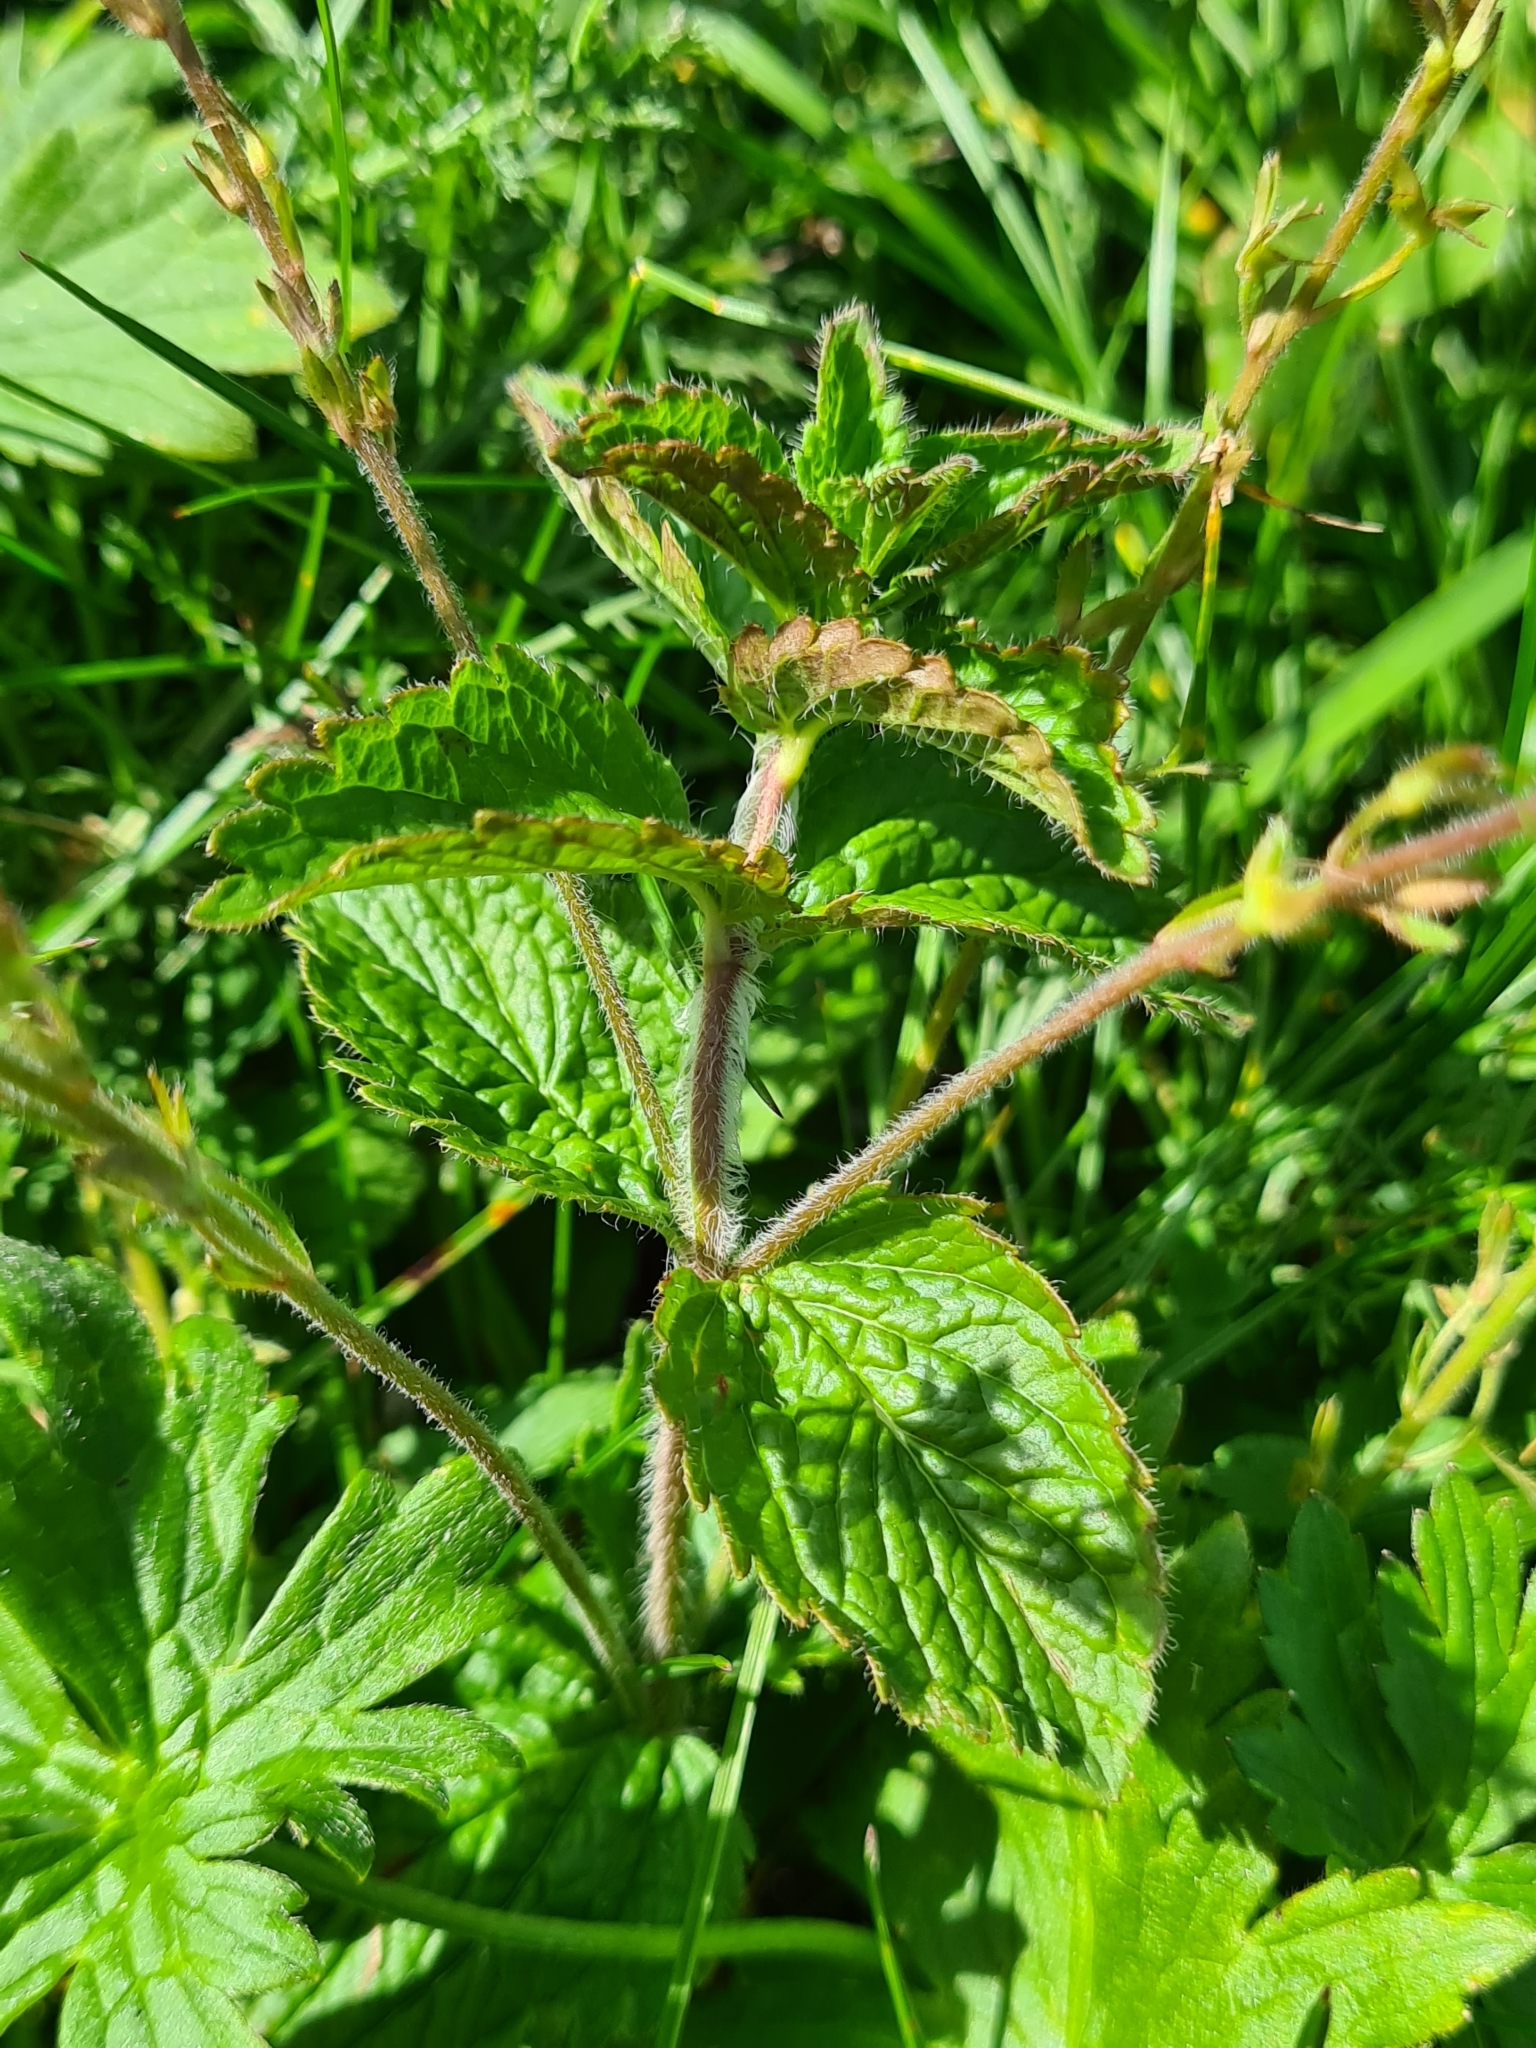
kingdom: Plantae
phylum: Tracheophyta
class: Magnoliopsida
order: Lamiales
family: Plantaginaceae
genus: Veronica
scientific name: Veronica chamaedrys
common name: Germander speedwell
